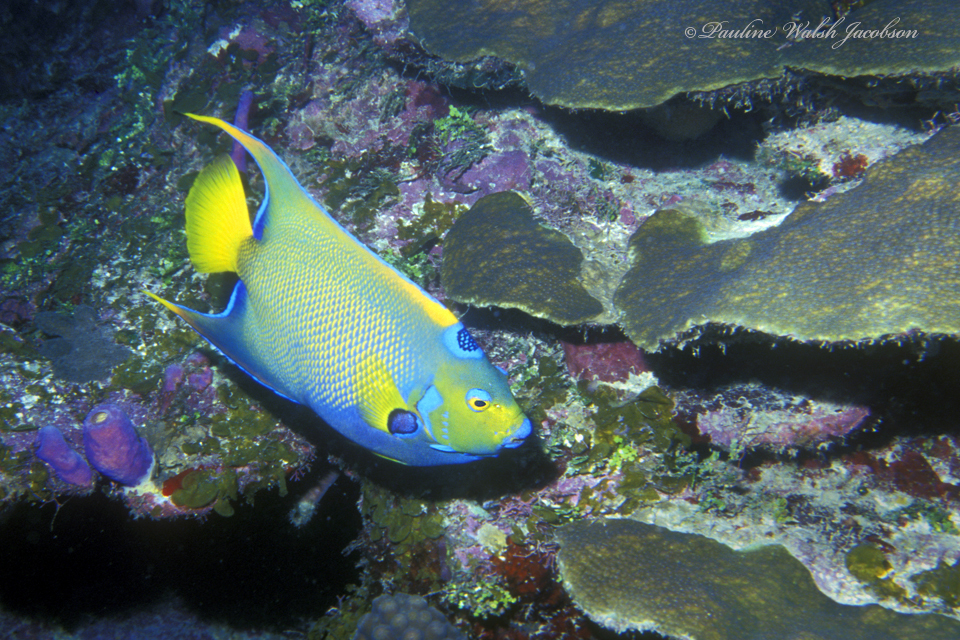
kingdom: Animalia
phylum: Chordata
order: Perciformes
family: Pomacanthidae
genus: Holacanthus
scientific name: Holacanthus ciliaris
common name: Queen angelfish
